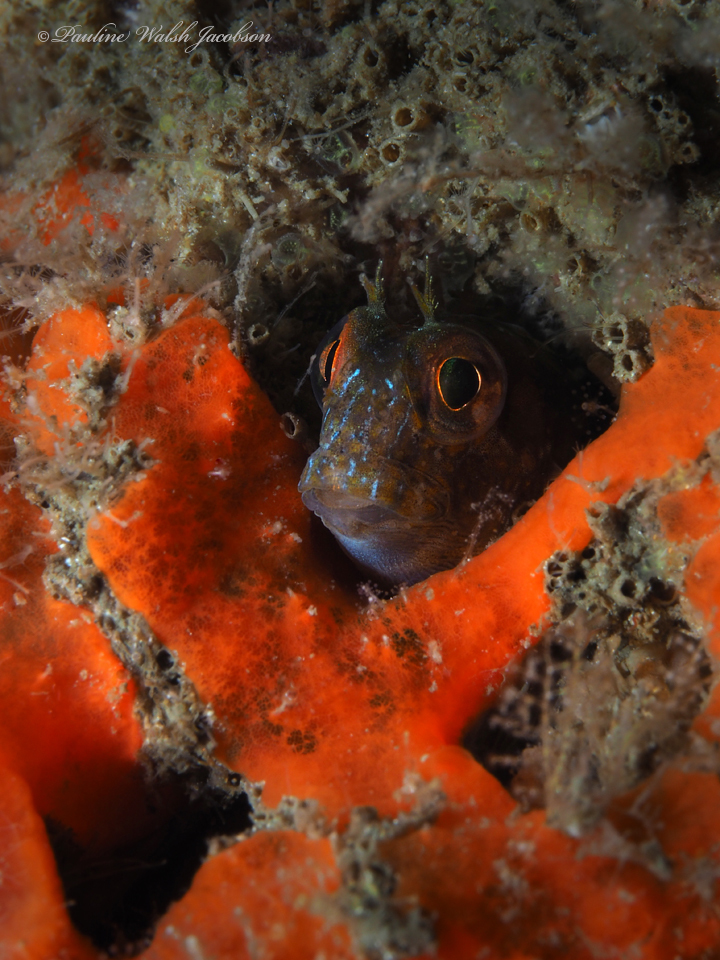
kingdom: Animalia
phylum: Chordata
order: Perciformes
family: Blenniidae
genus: Parablennius
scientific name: Parablennius marmoreus
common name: Seaweed blenny
